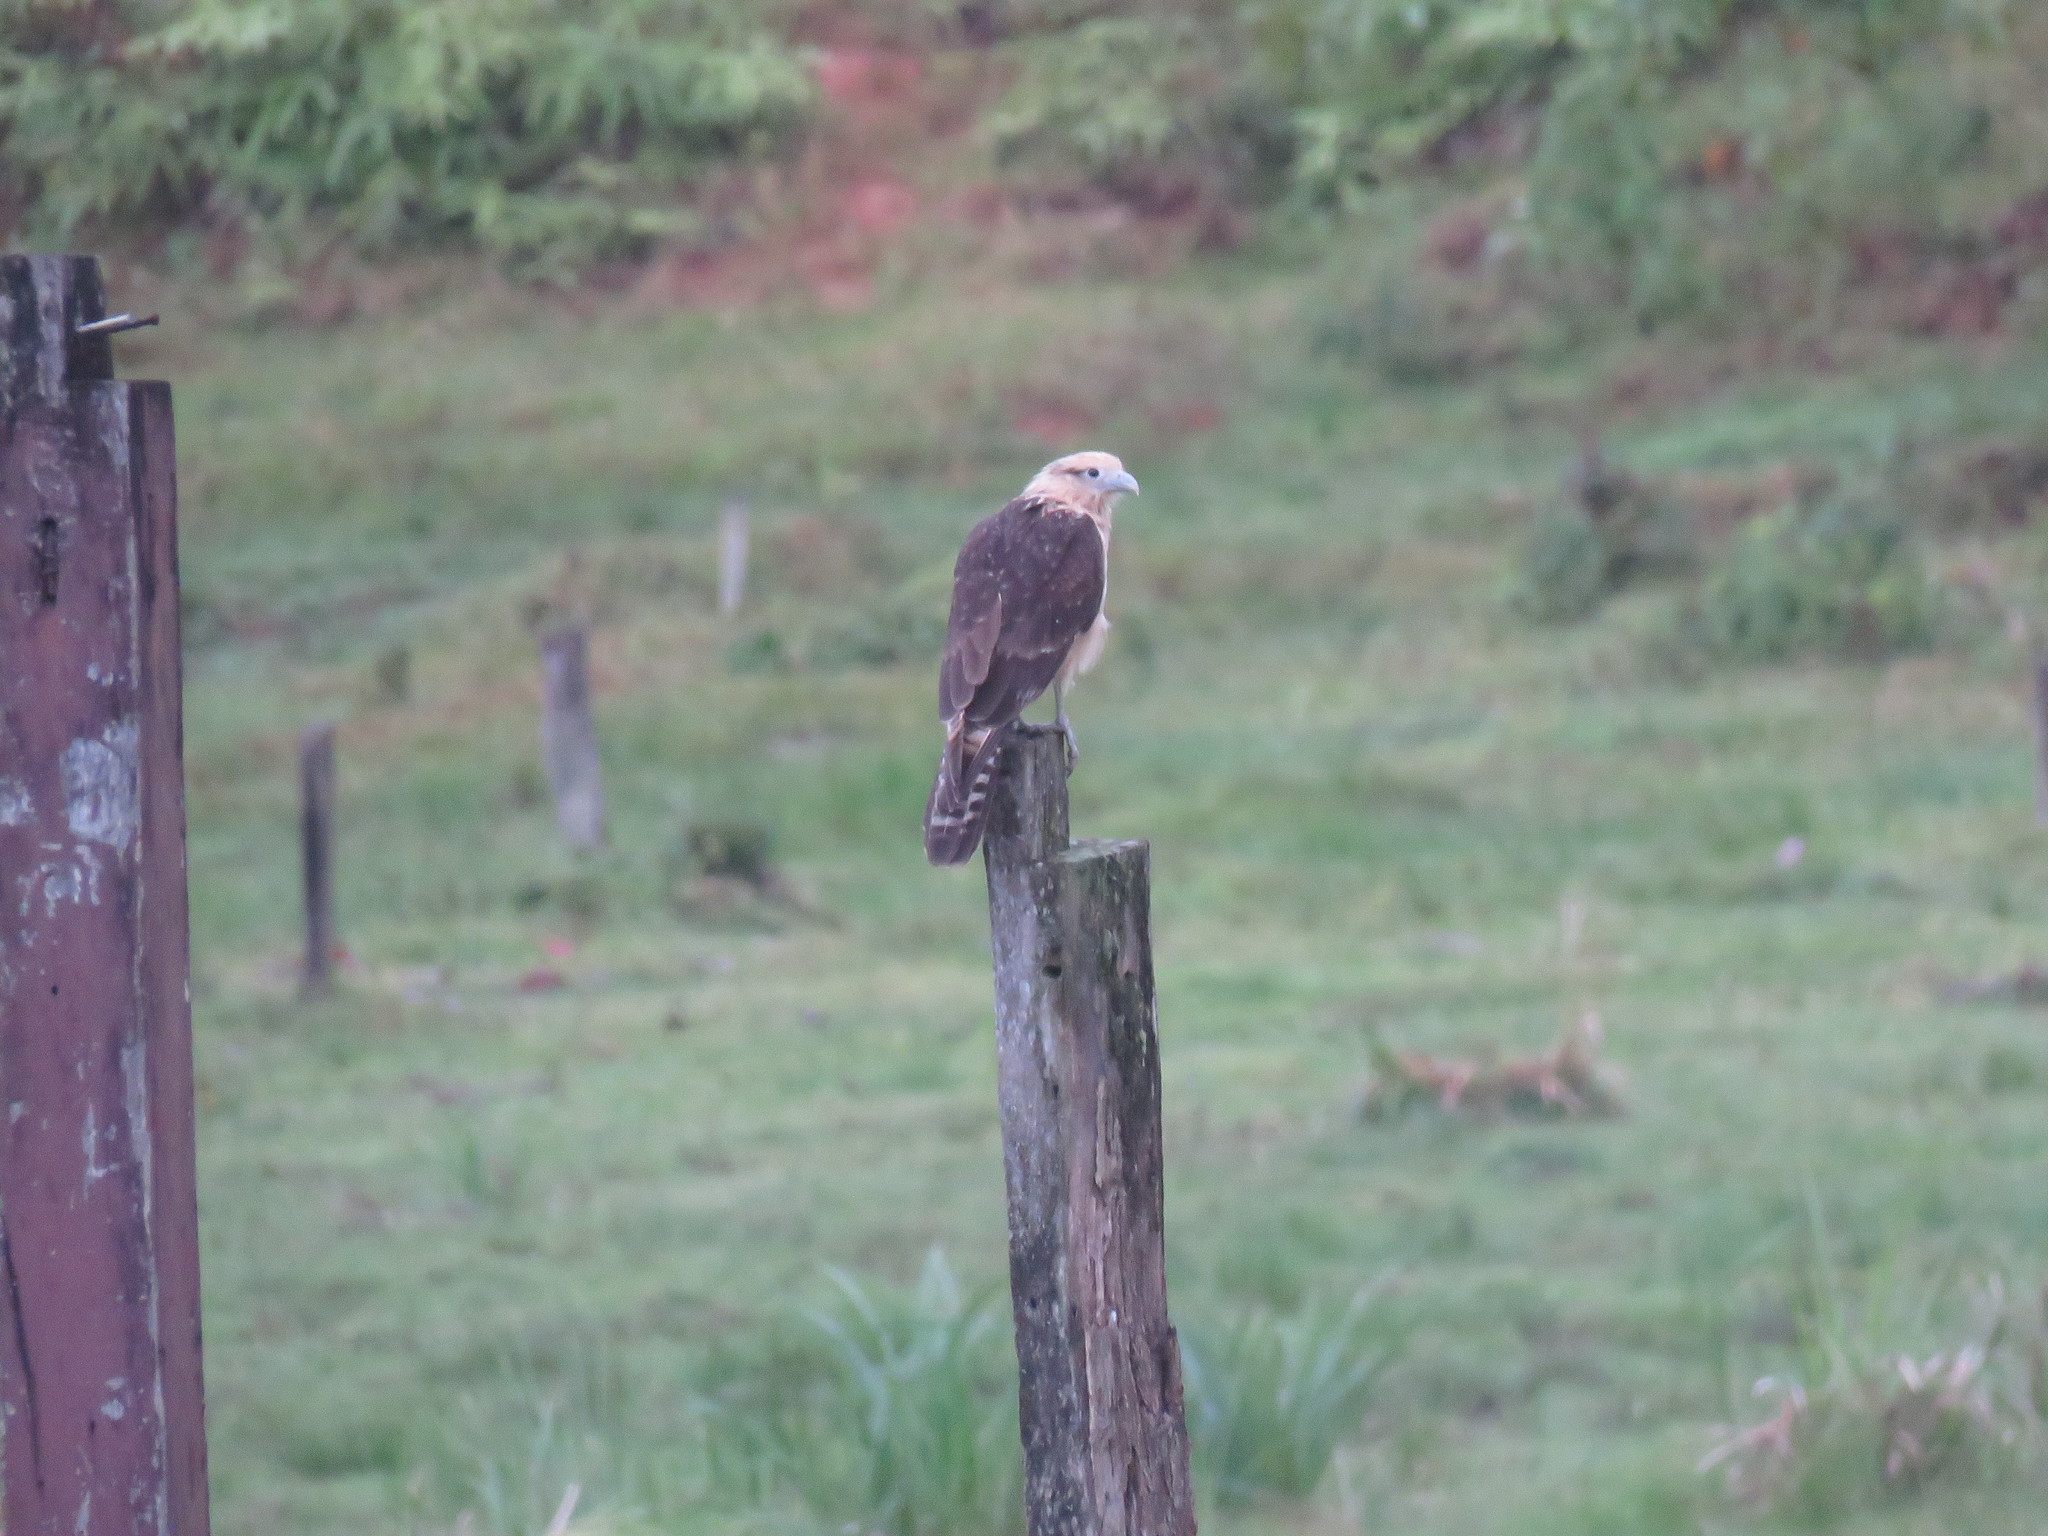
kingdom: Animalia
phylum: Chordata
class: Aves
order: Falconiformes
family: Falconidae
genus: Daptrius
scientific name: Daptrius
